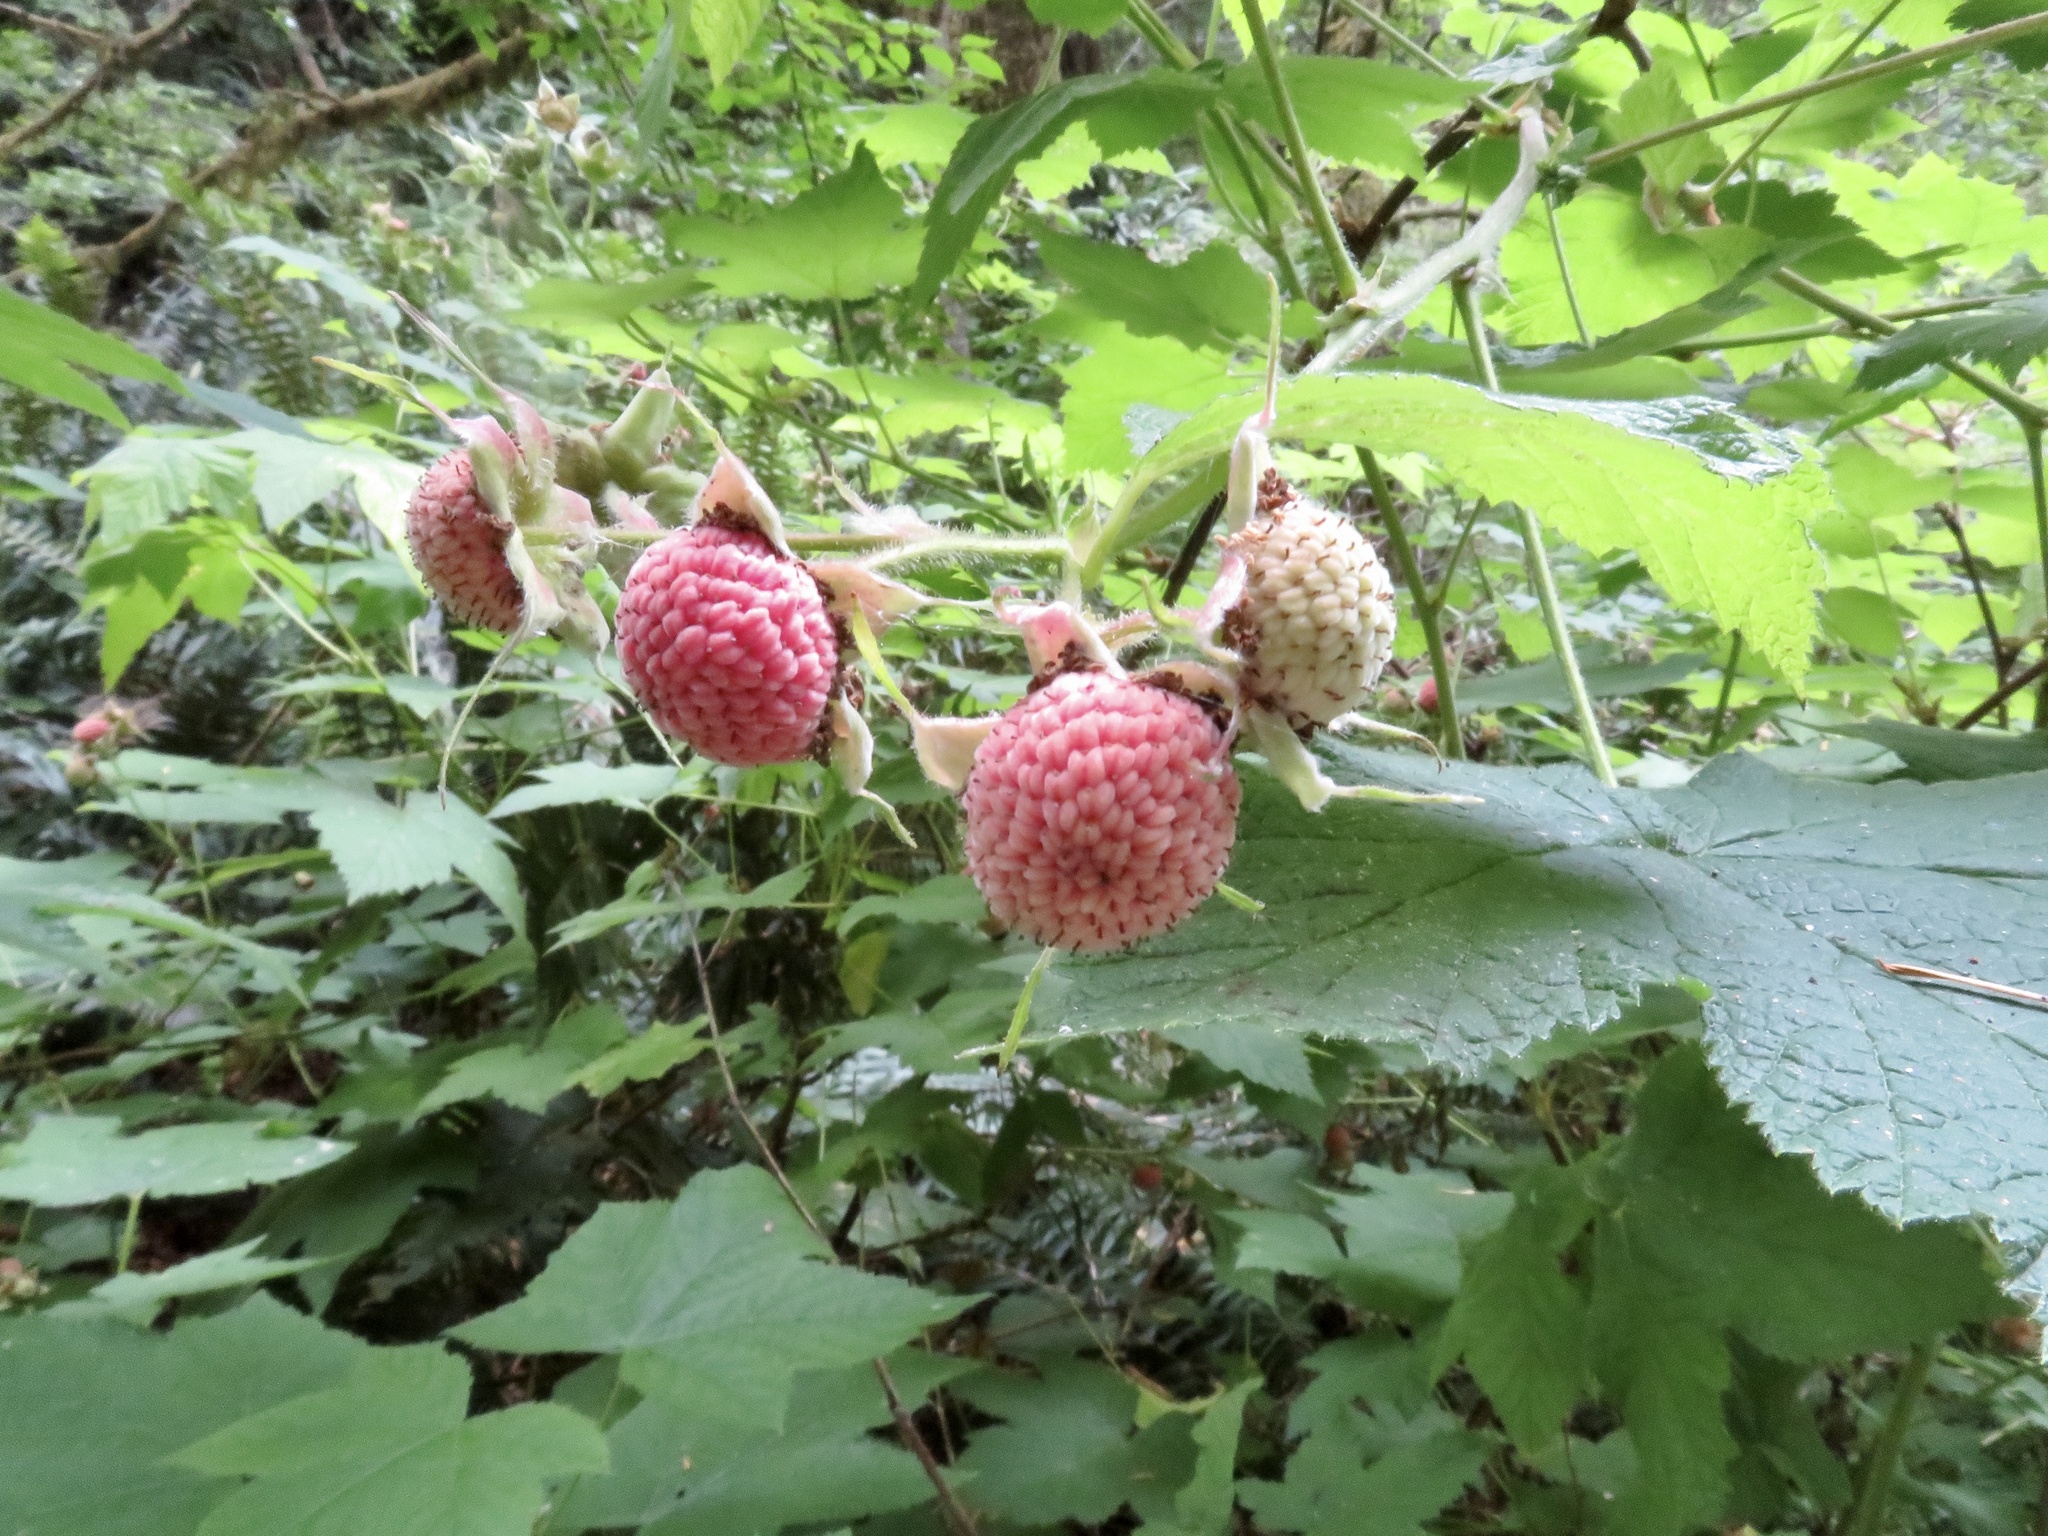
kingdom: Plantae
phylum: Tracheophyta
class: Magnoliopsida
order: Rosales
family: Rosaceae
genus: Rubus
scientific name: Rubus parviflorus
